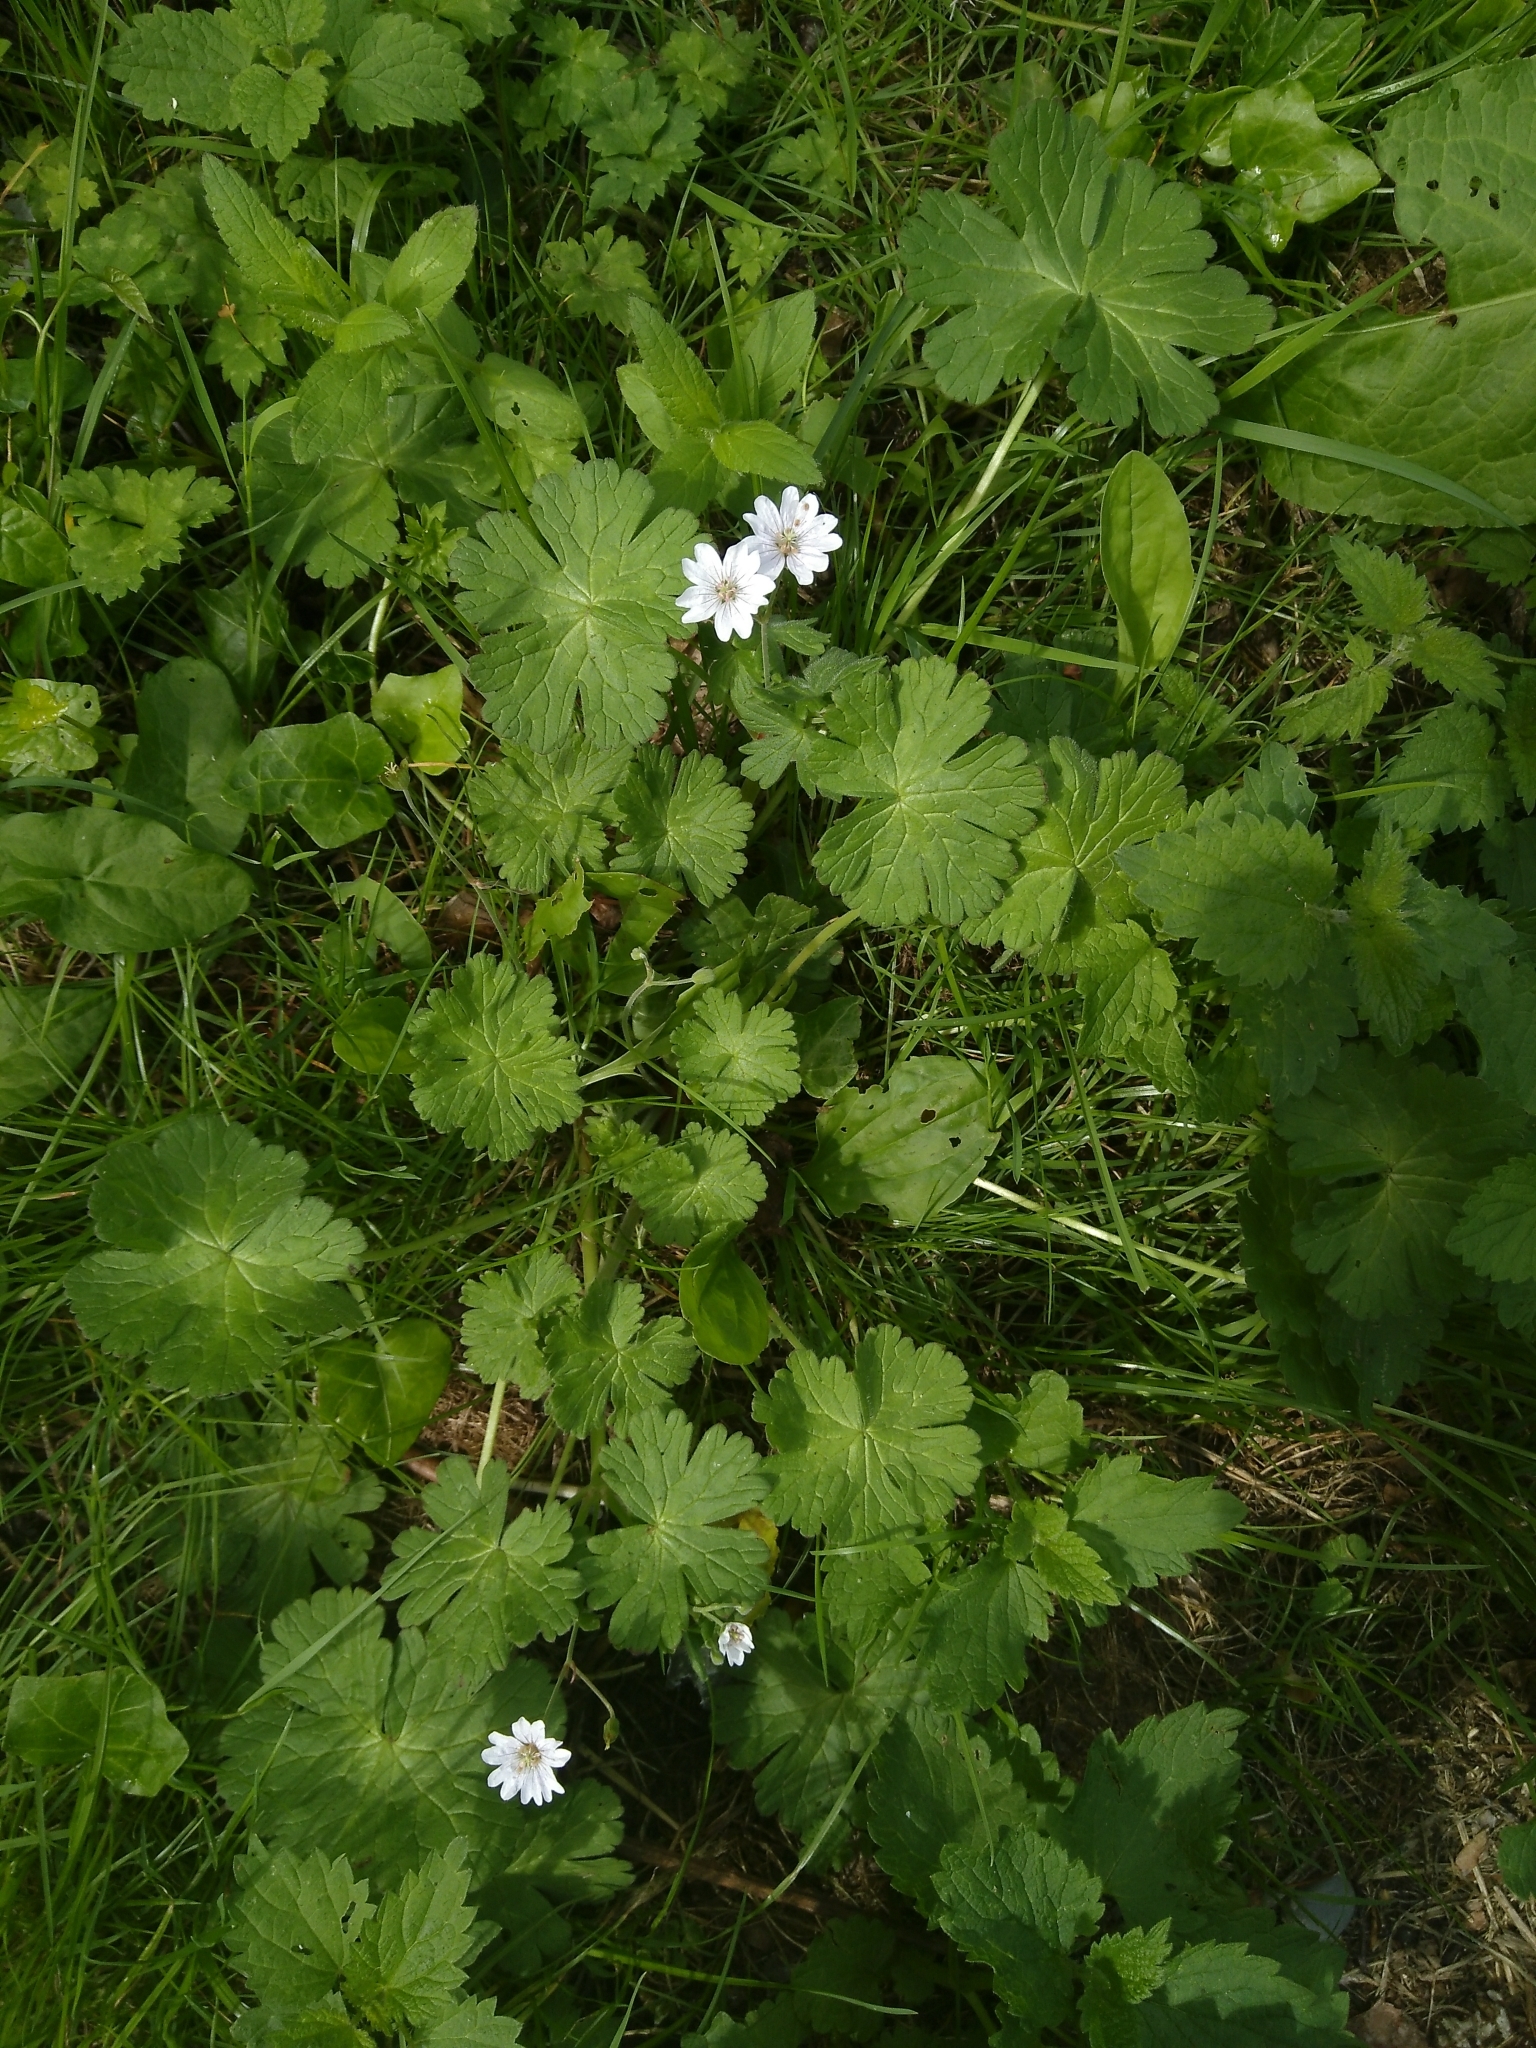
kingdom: Plantae
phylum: Tracheophyta
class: Magnoliopsida
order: Geraniales
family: Geraniaceae
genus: Geranium
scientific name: Geranium pyrenaicum
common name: Hedgerow crane's-bill
